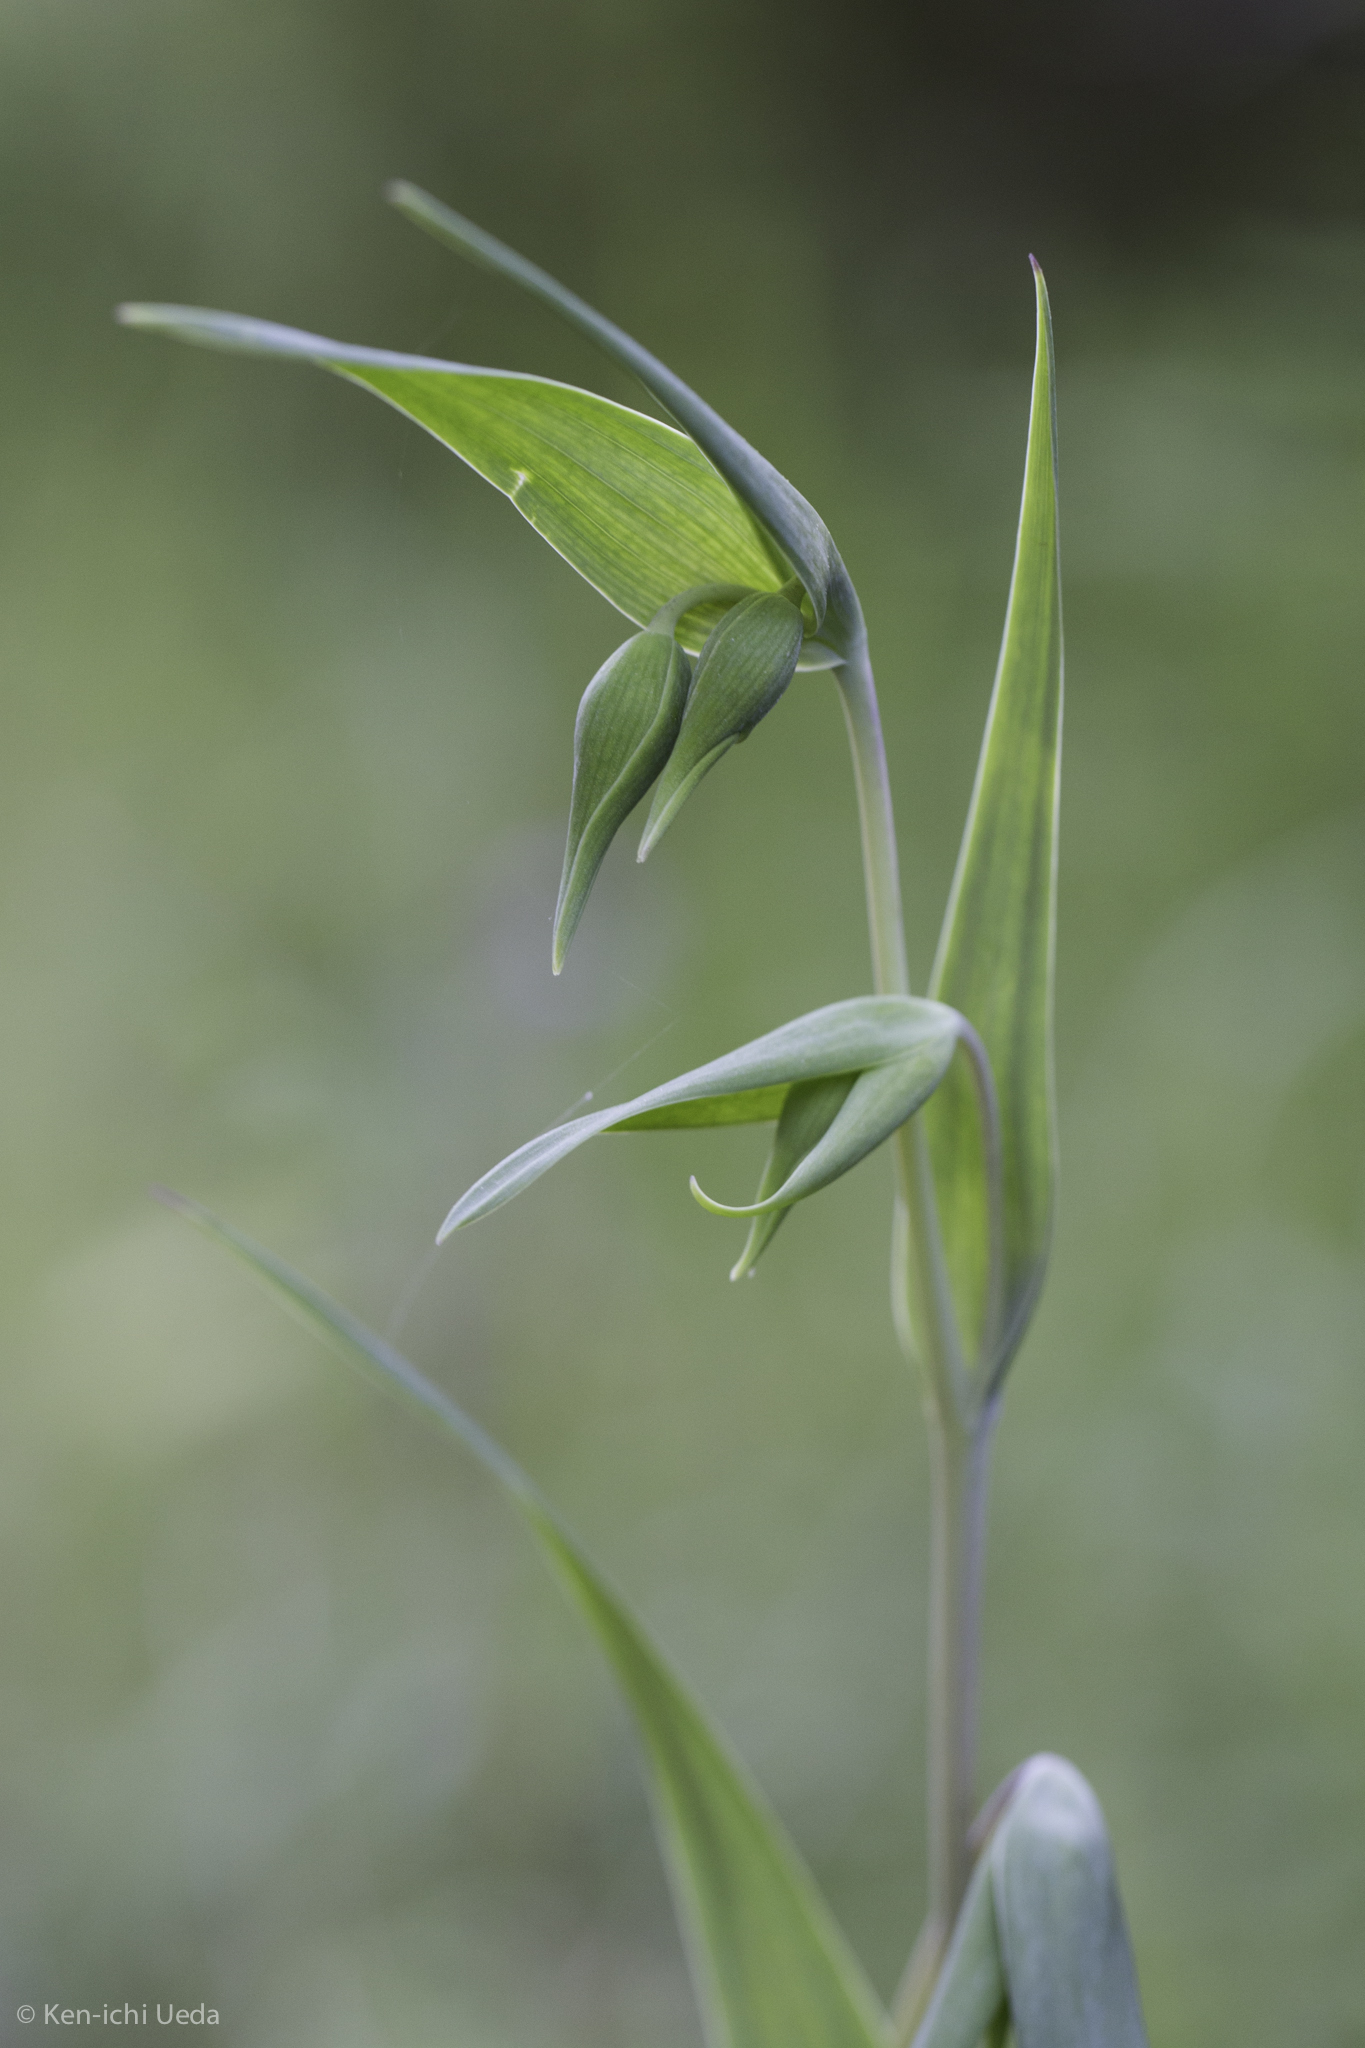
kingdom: Plantae
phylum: Tracheophyta
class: Liliopsida
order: Liliales
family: Liliaceae
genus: Calochortus
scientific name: Calochortus albus
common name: Fairy-lantern
